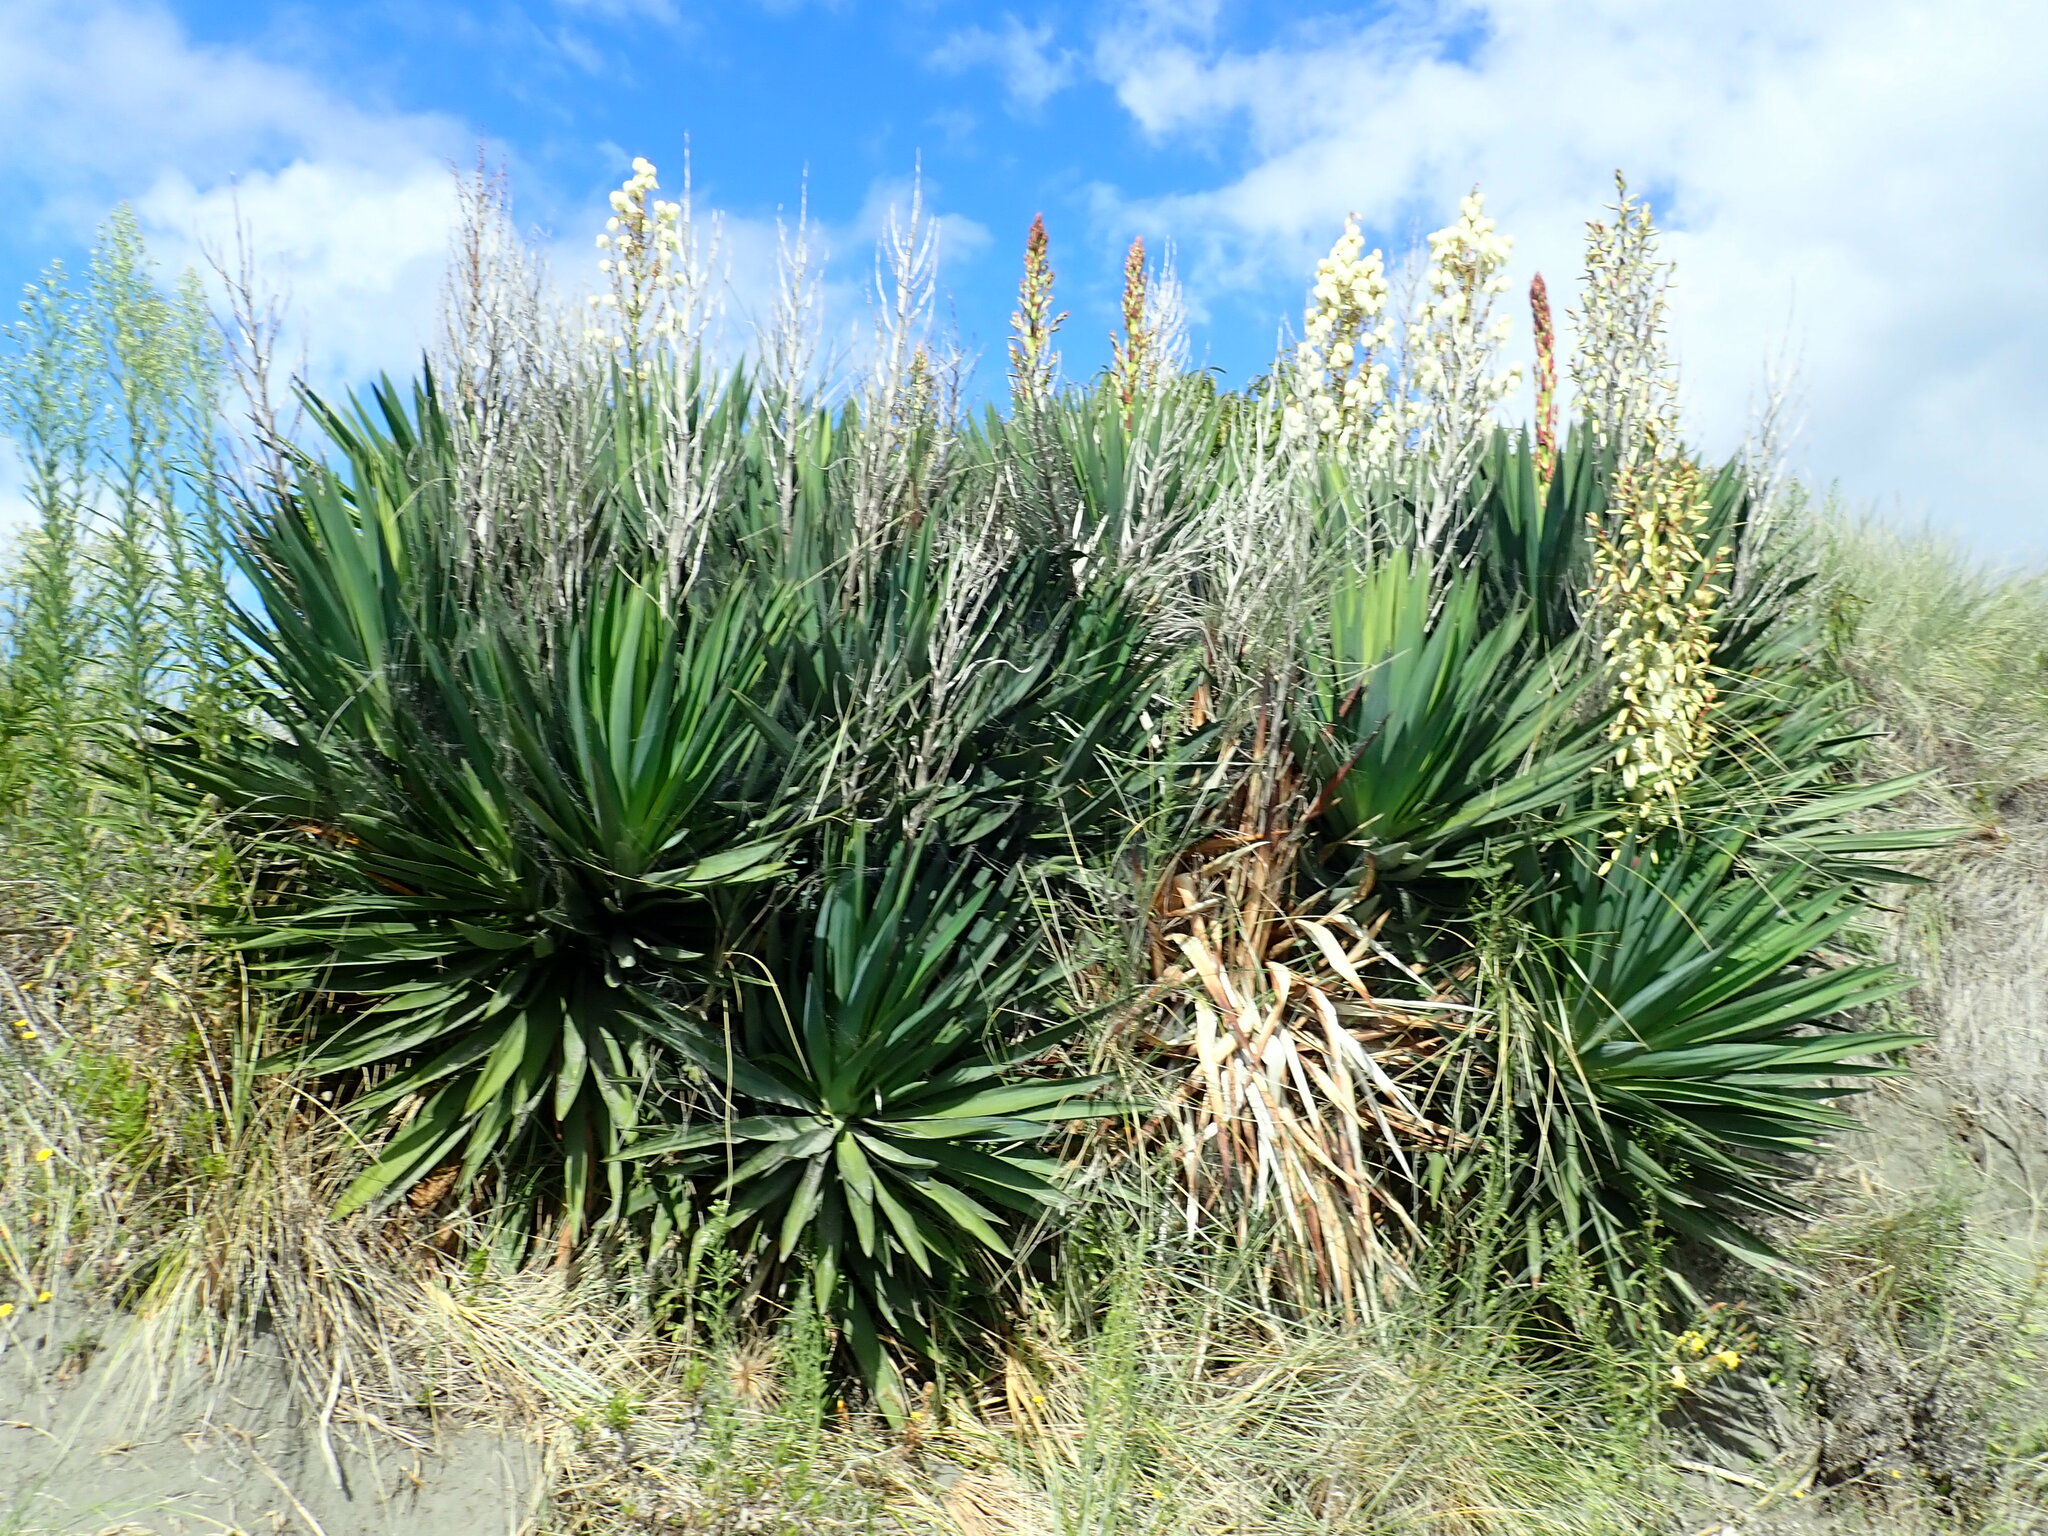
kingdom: Plantae
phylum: Tracheophyta
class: Liliopsida
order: Asparagales
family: Asparagaceae
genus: Yucca
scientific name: Yucca gloriosa
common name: Spanish-dagger
